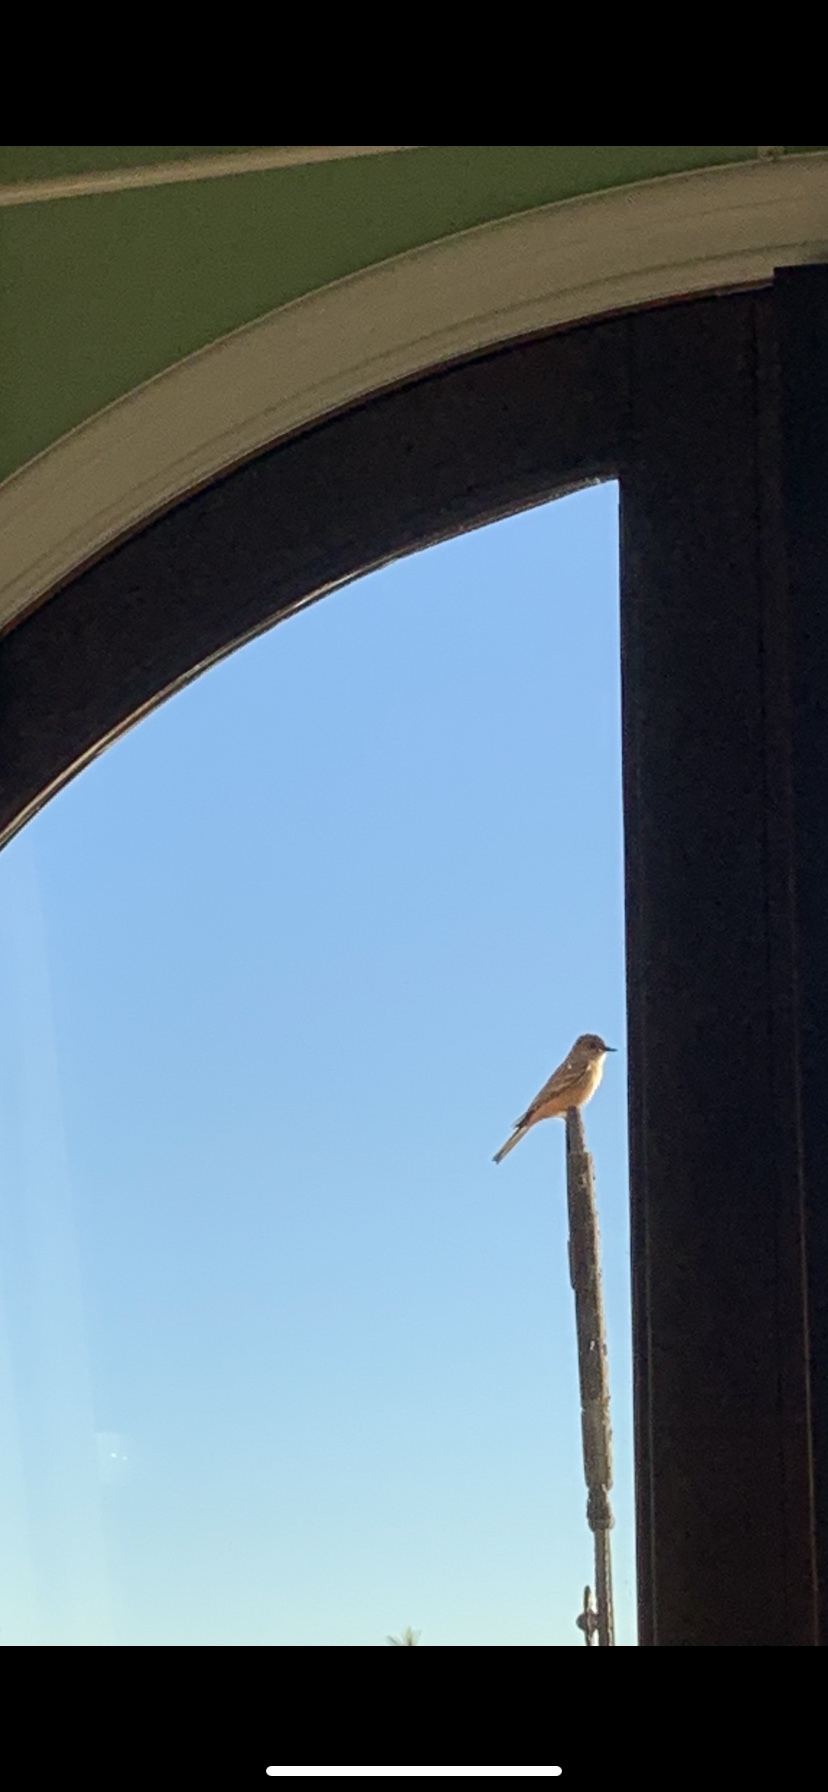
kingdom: Animalia
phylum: Chordata
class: Aves
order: Passeriformes
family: Tyrannidae
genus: Sayornis
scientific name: Sayornis saya
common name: Say's phoebe
